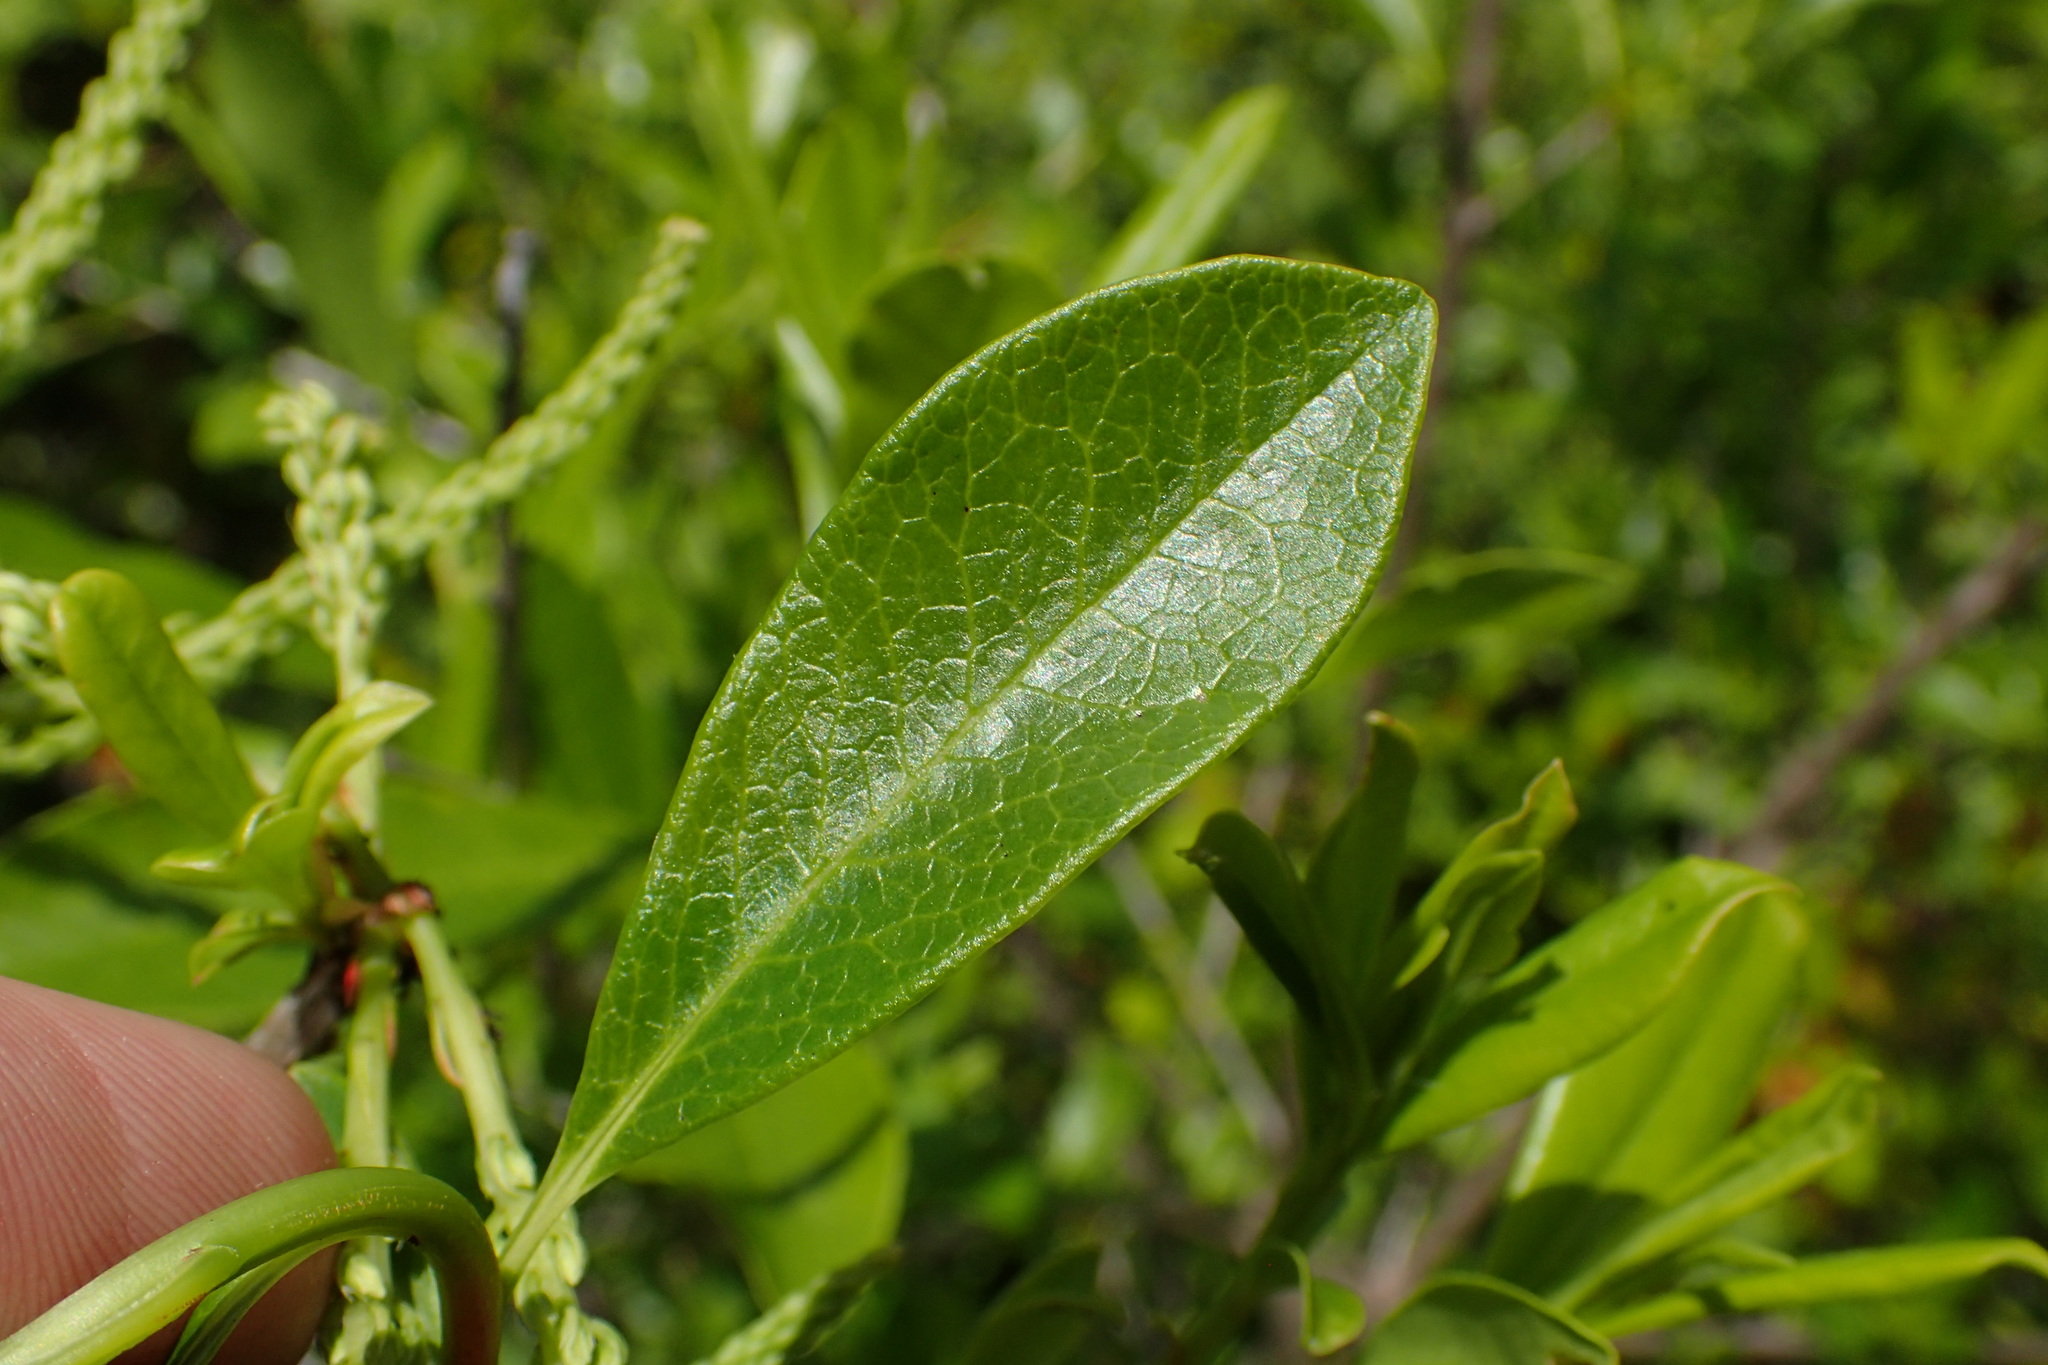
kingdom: Plantae
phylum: Tracheophyta
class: Magnoliopsida
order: Ericales
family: Cyrillaceae
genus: Cyrilla
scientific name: Cyrilla racemiflora
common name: Black titi
